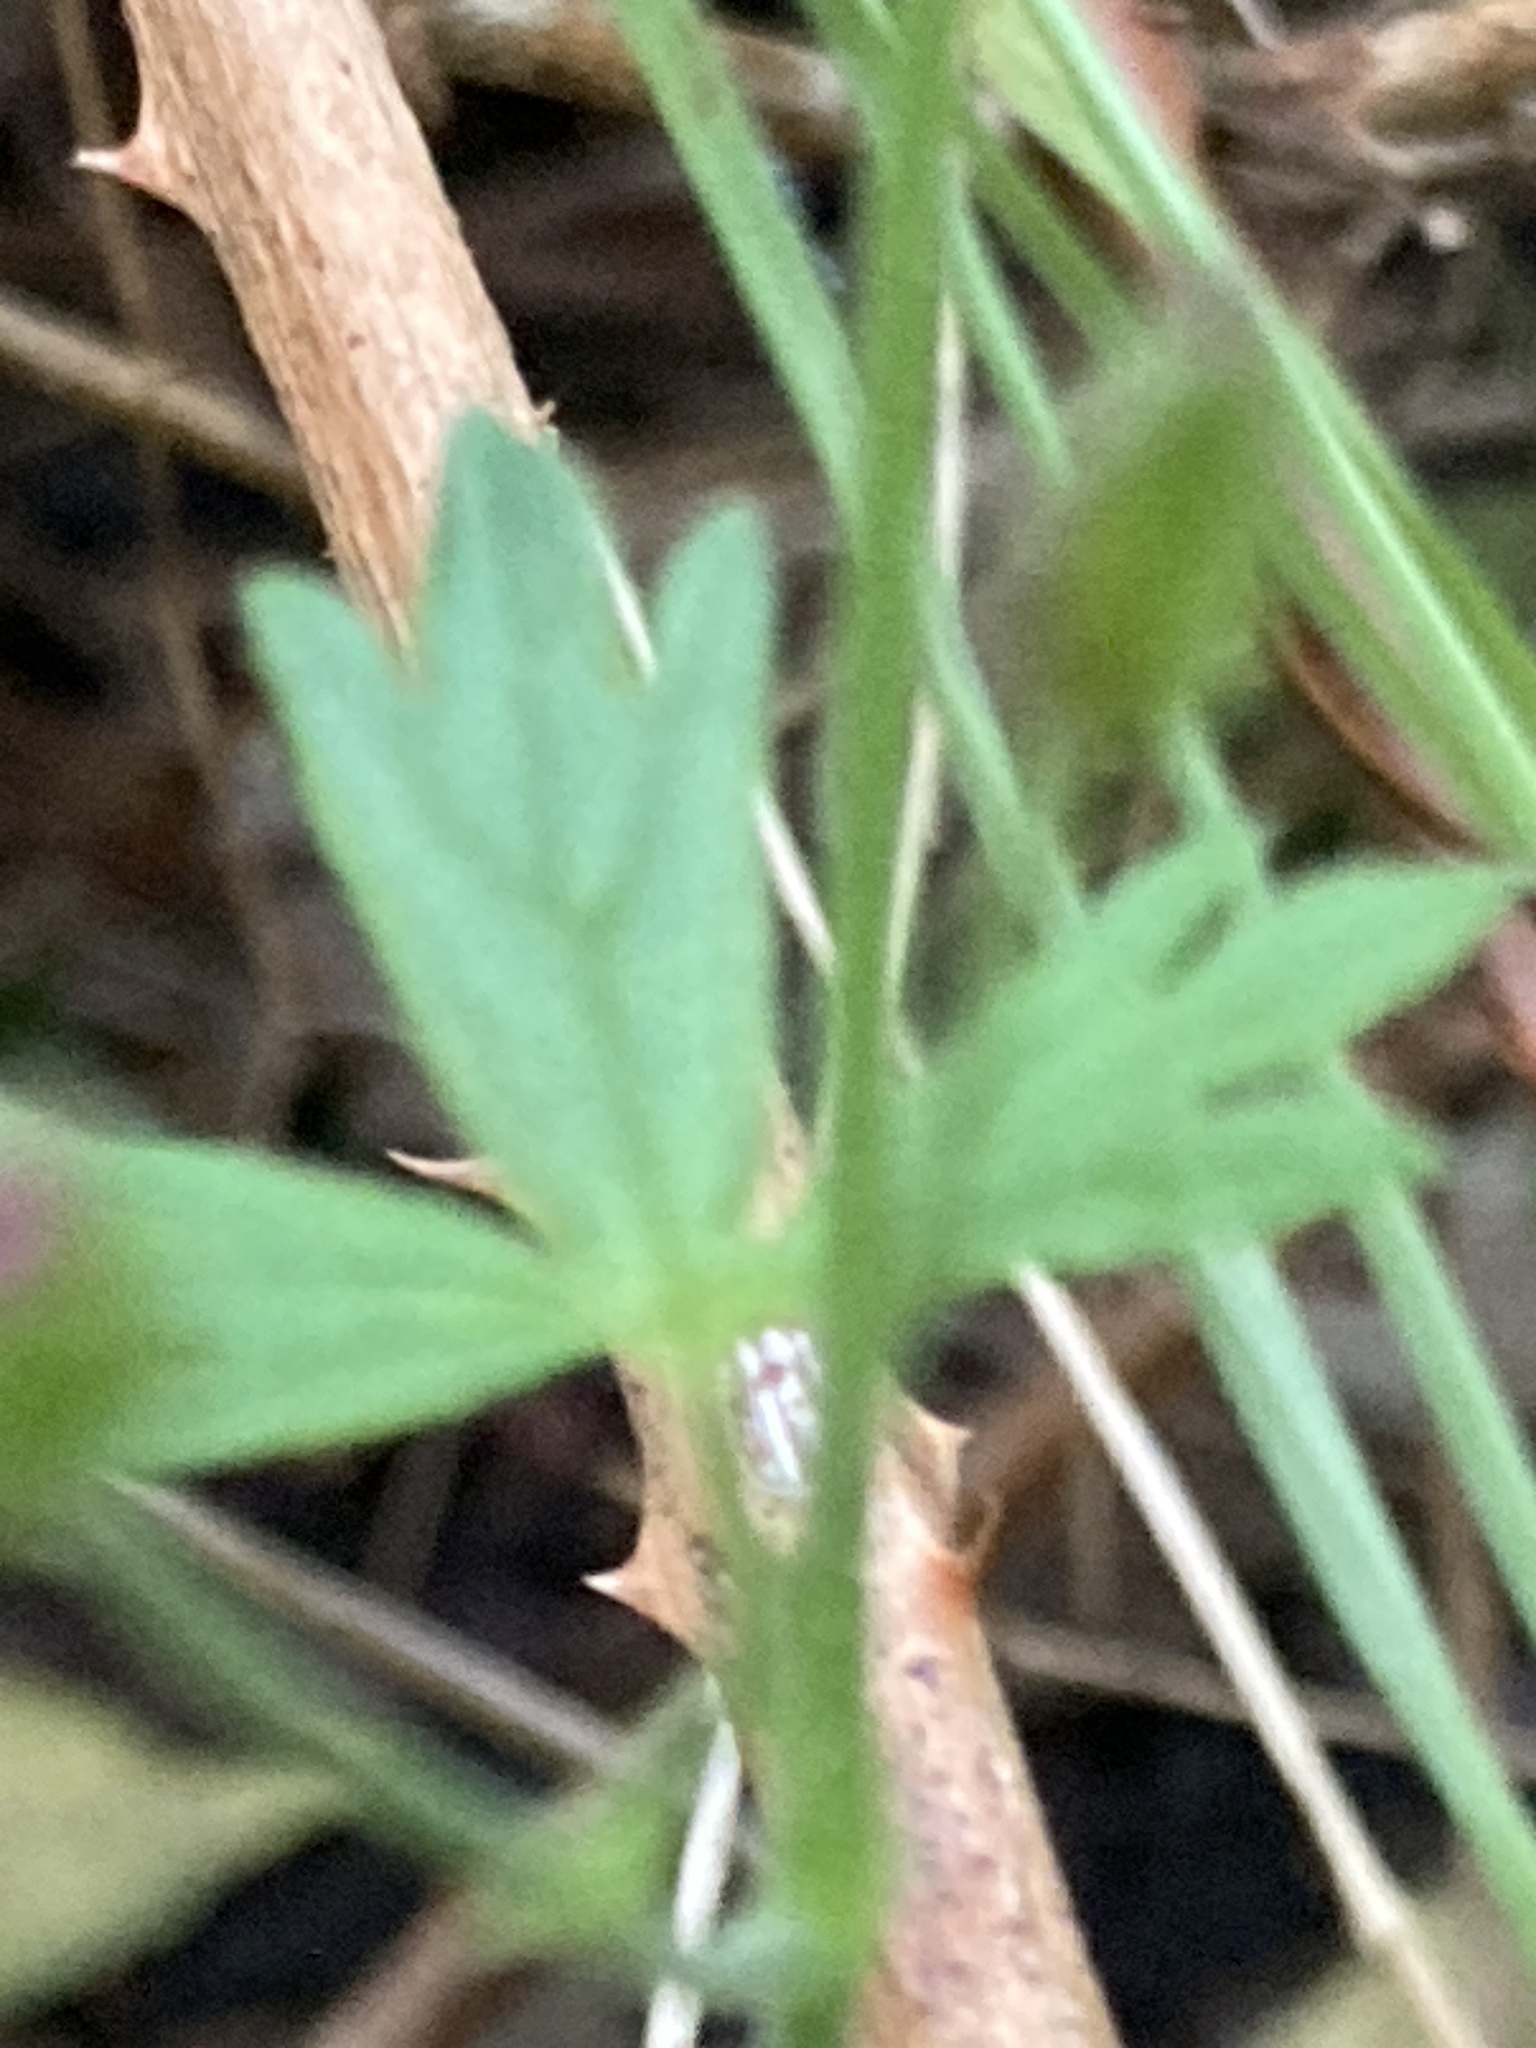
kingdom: Plantae
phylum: Tracheophyta
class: Magnoliopsida
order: Geraniales
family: Geraniaceae
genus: Geranium
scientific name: Geranium pyrenaicum
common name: Hedgerow crane's-bill
